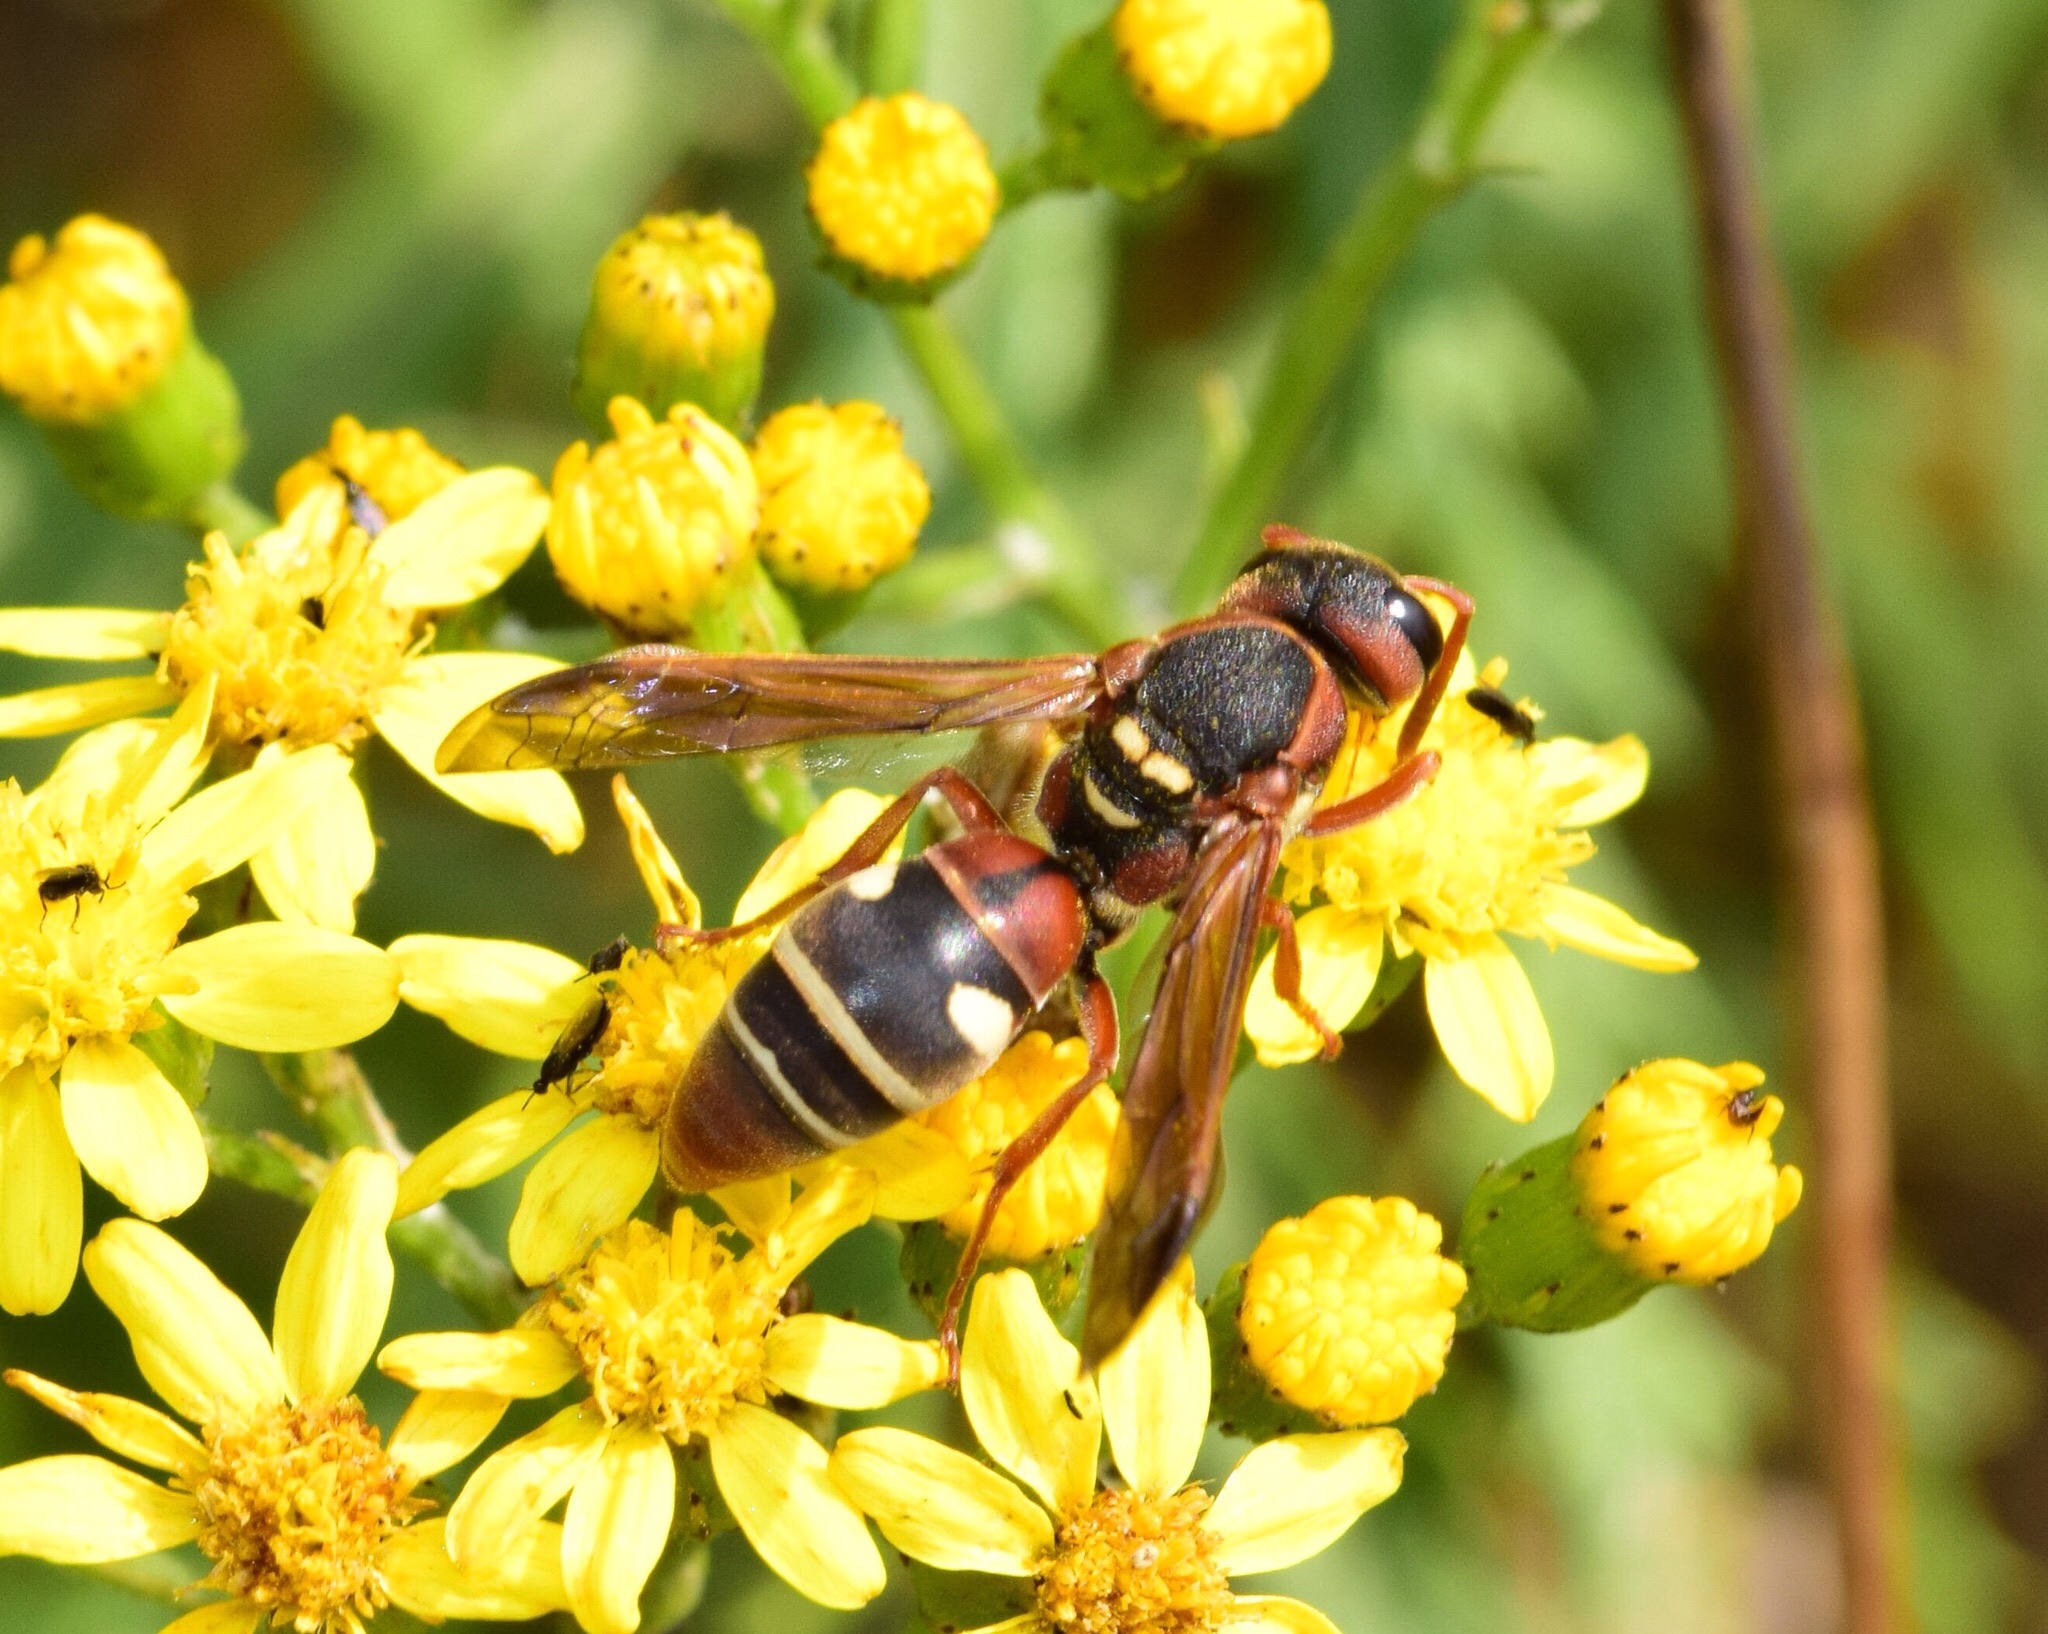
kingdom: Animalia
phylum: Arthropoda
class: Insecta
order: Hymenoptera
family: Eumenidae
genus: Antodynerus
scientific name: Antodynerus
